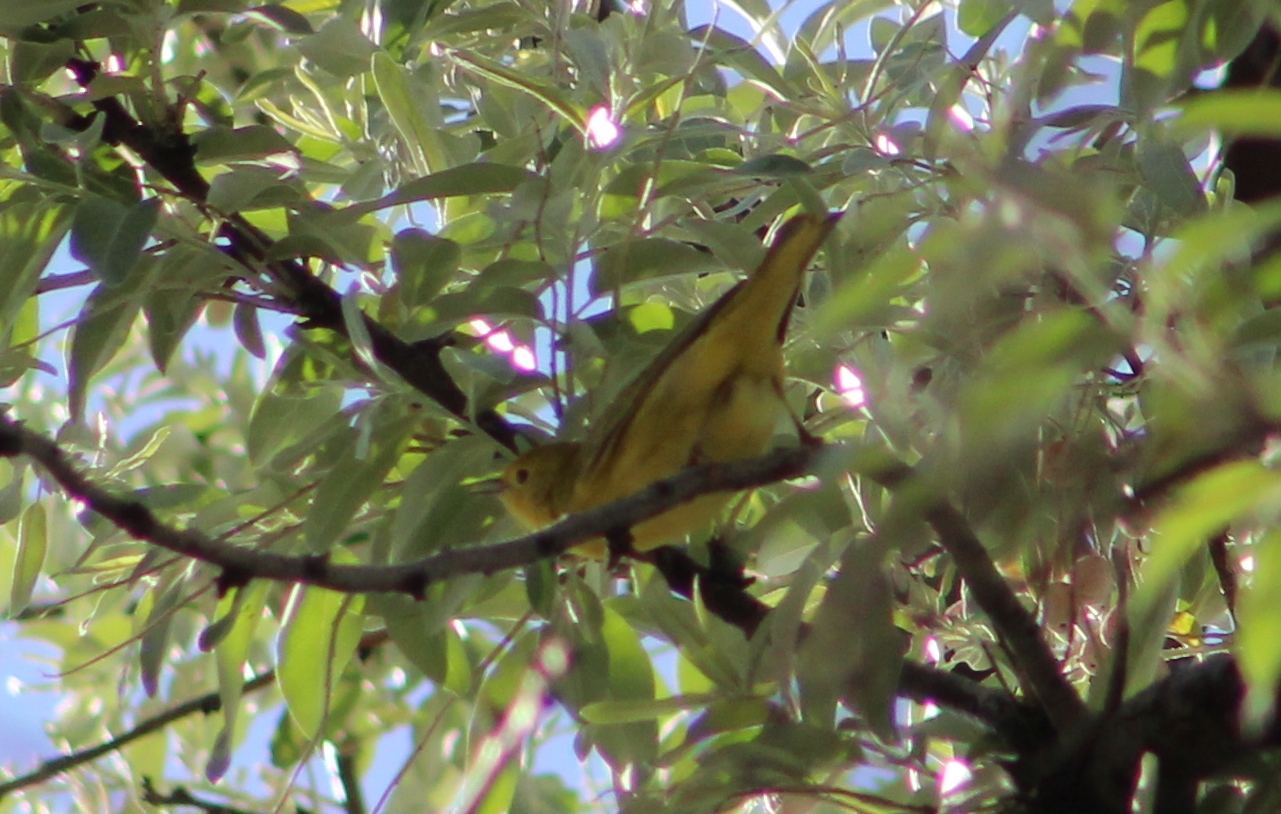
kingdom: Animalia
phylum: Chordata
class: Aves
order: Passeriformes
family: Parulidae
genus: Setophaga
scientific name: Setophaga petechia
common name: Yellow warbler
